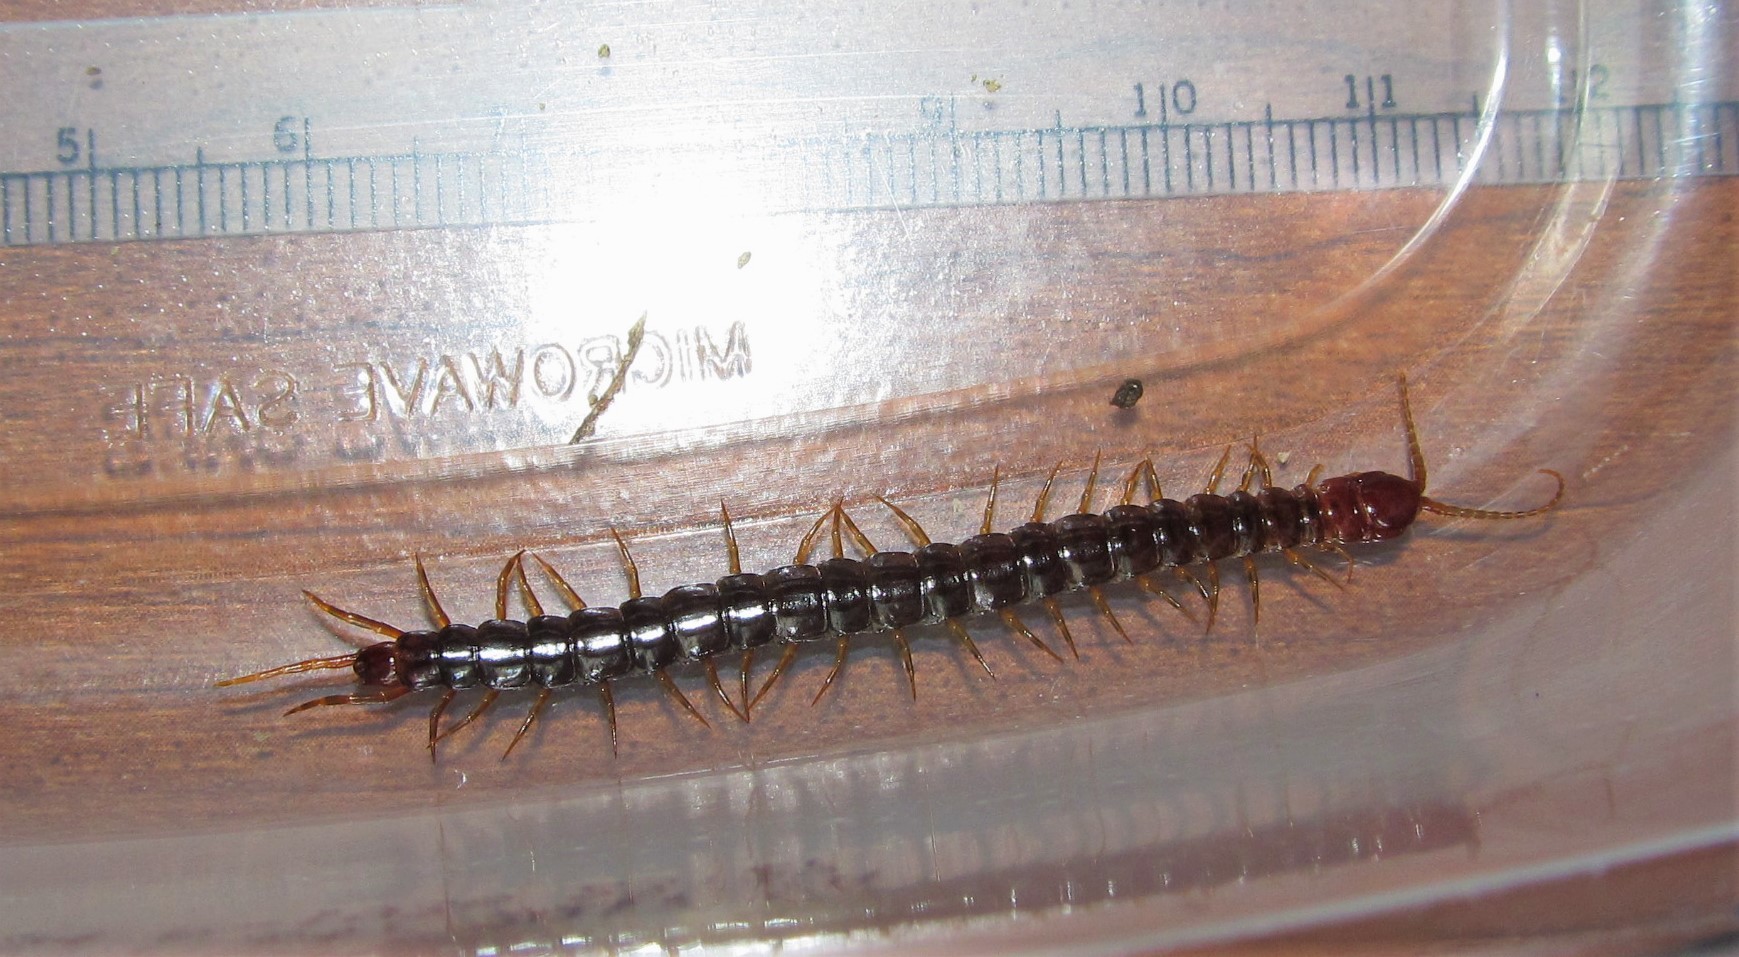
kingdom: Animalia
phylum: Arthropoda
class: Chilopoda
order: Scolopendromorpha
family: Scolopocryptopidae
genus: Scolopocryptops
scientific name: Scolopocryptops nigridius
